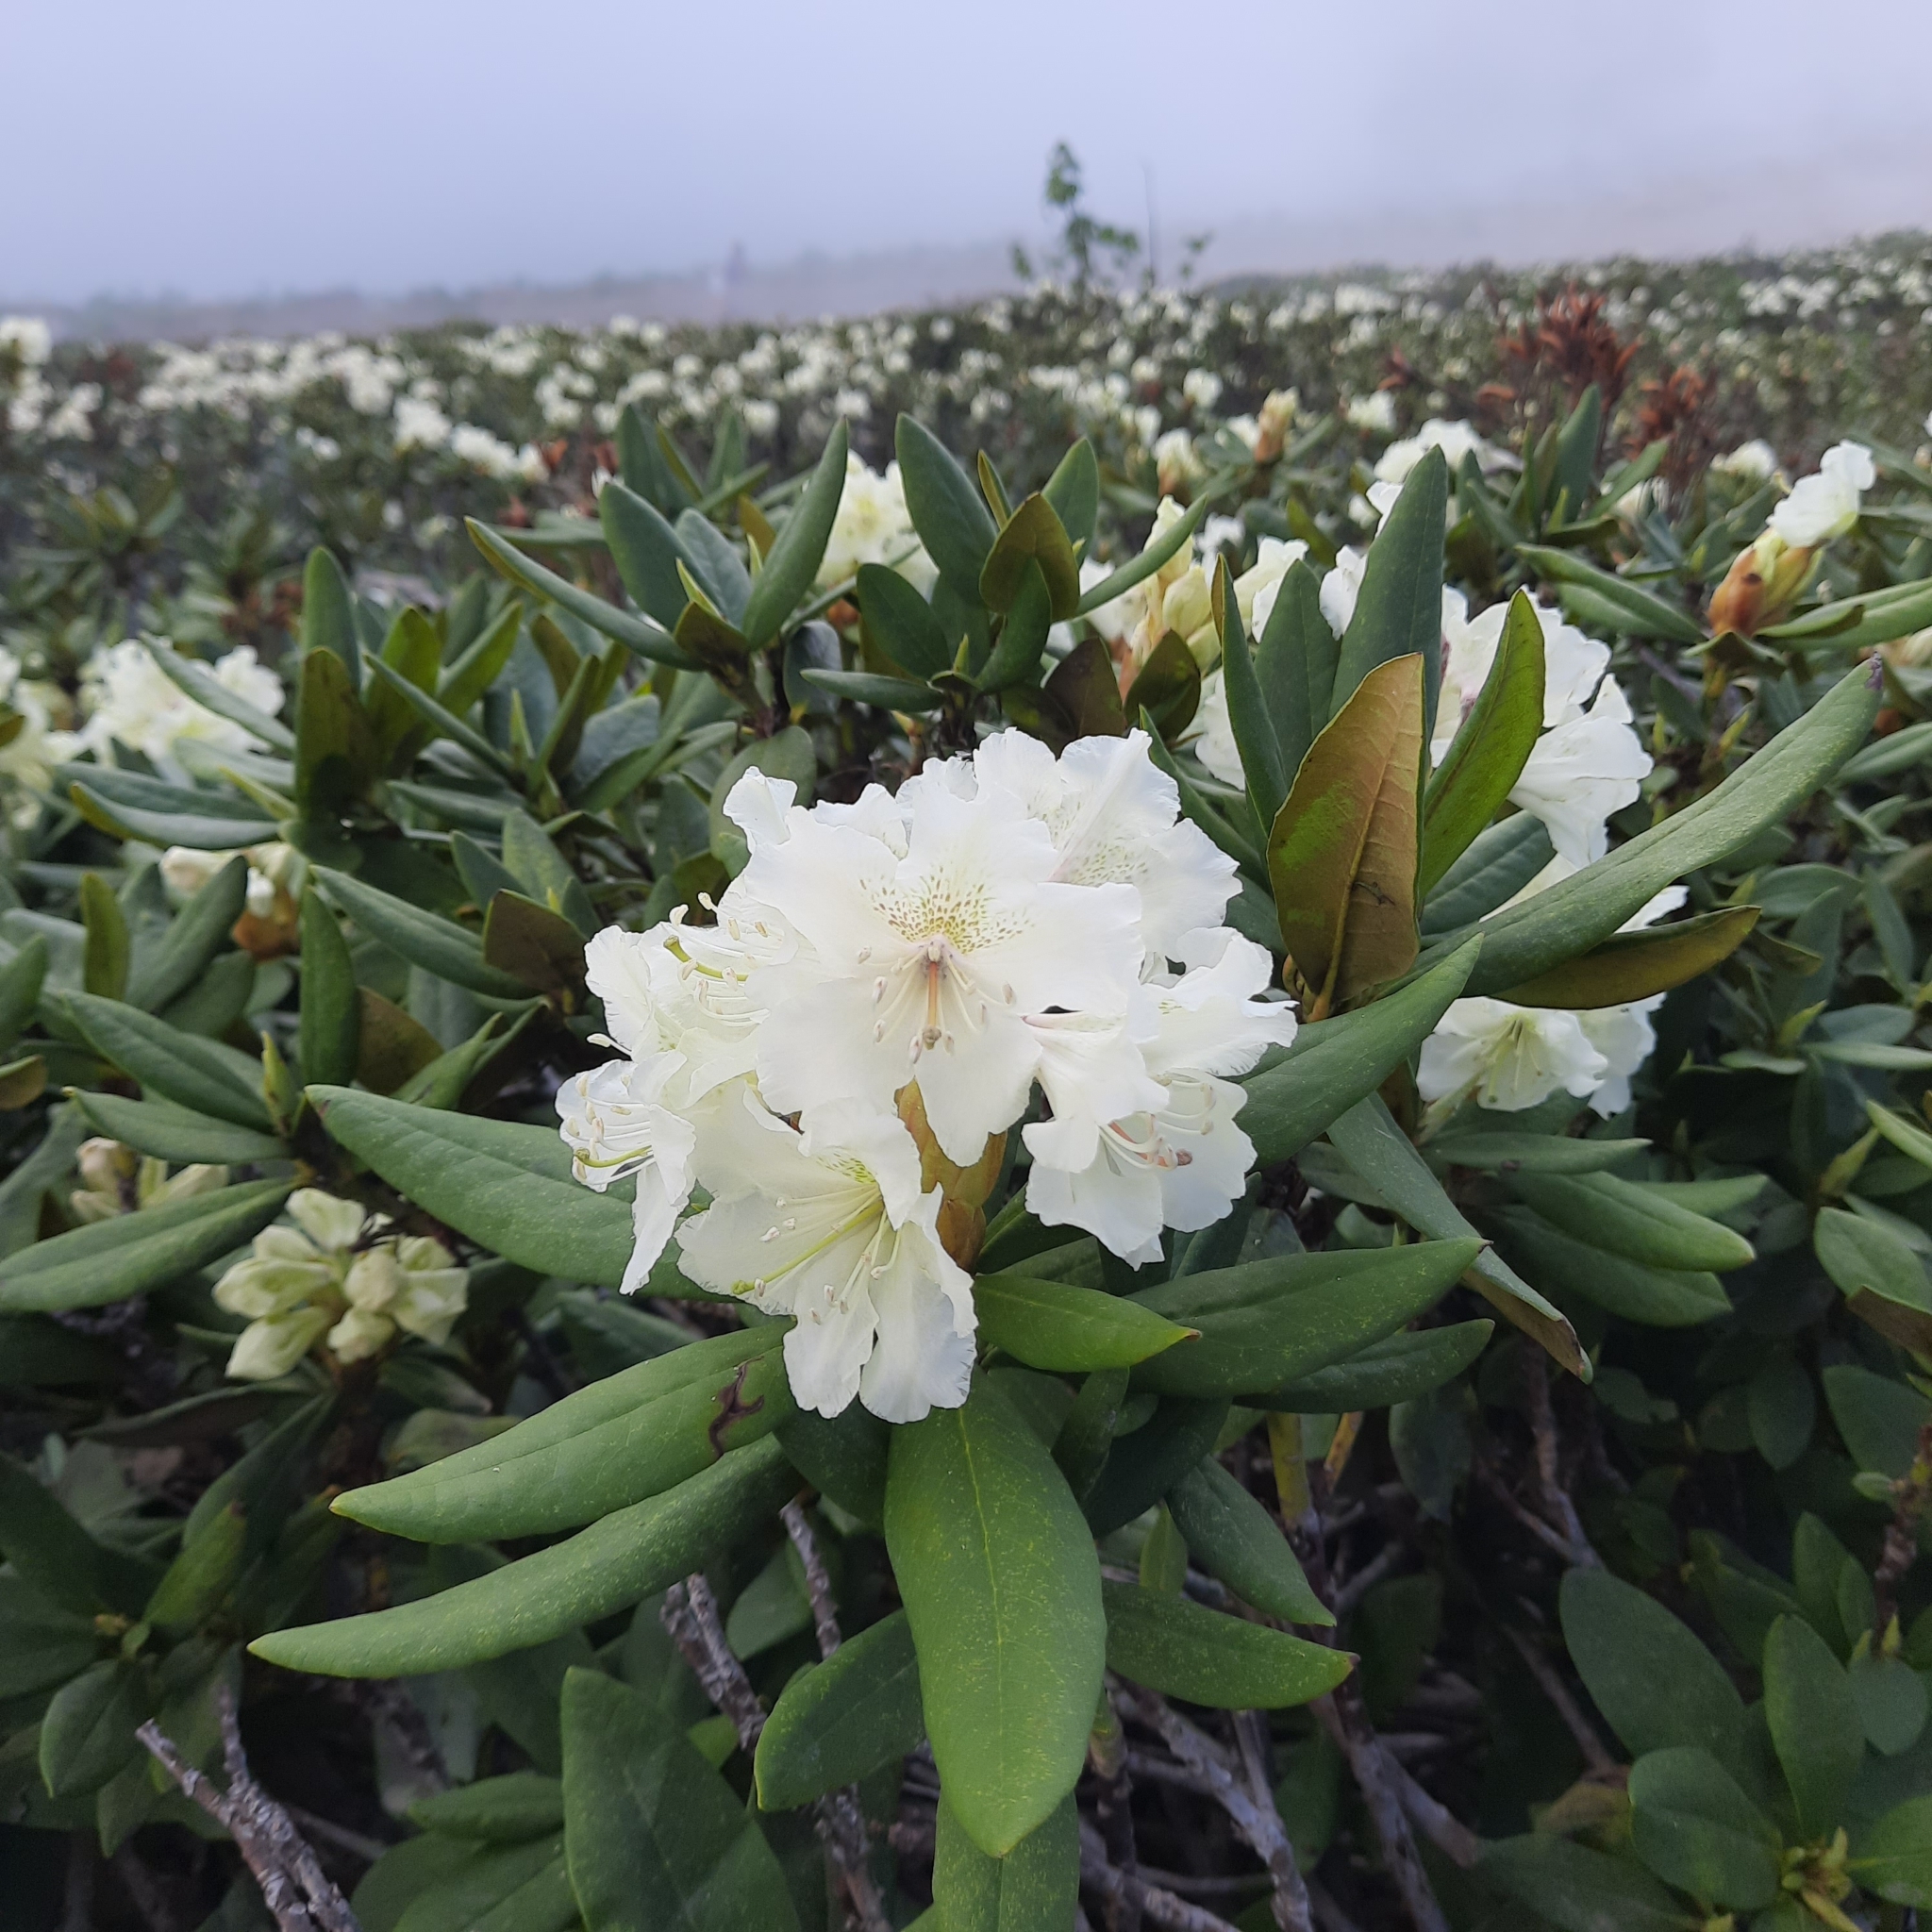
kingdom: Plantae
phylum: Tracheophyta
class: Magnoliopsida
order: Ericales
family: Ericaceae
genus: Rhododendron
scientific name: Rhododendron caucasicum
